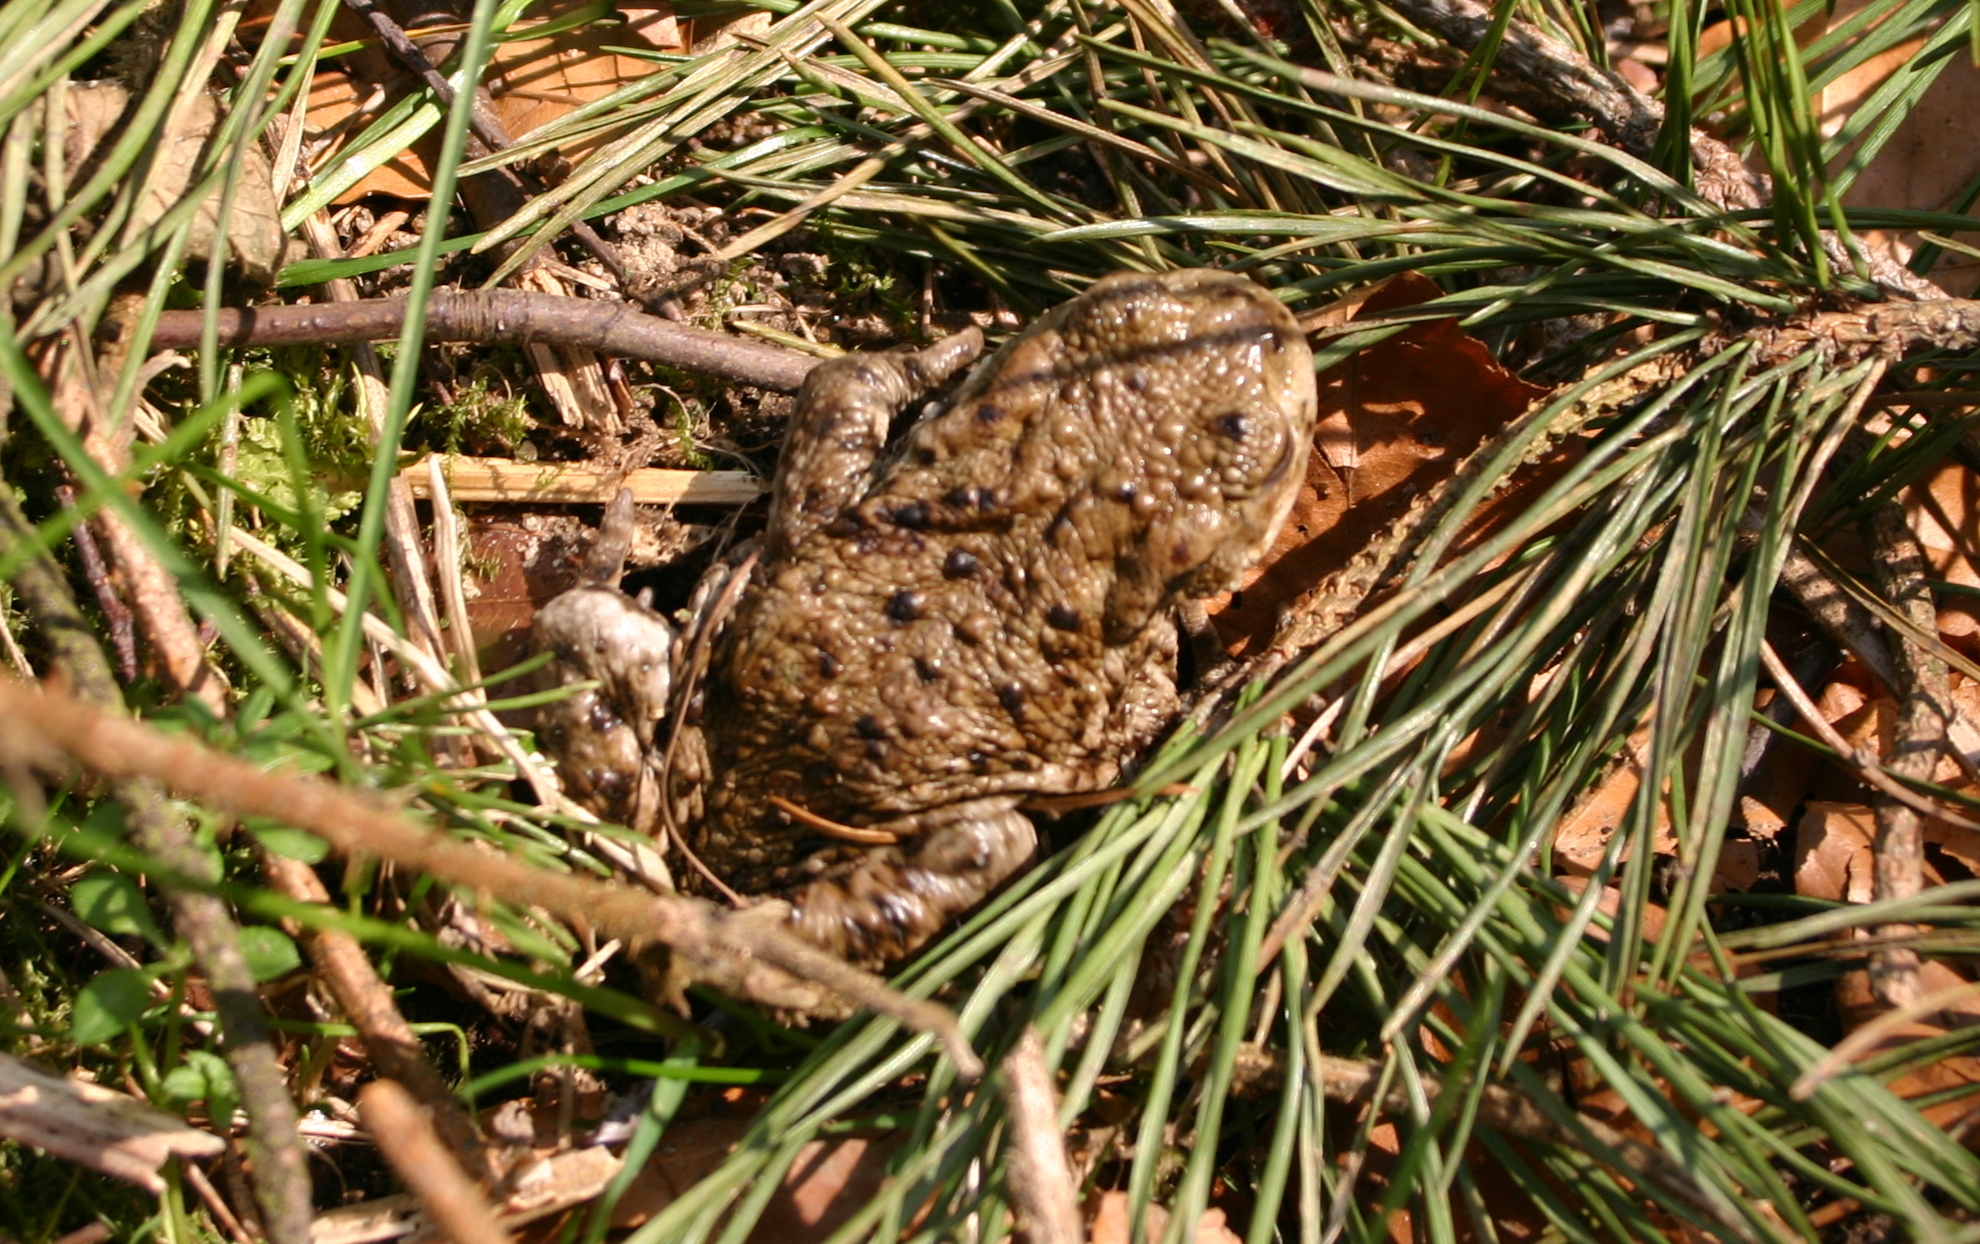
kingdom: Animalia
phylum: Chordata
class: Amphibia
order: Anura
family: Bufonidae
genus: Bufo
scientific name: Bufo bufo
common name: Common toad
